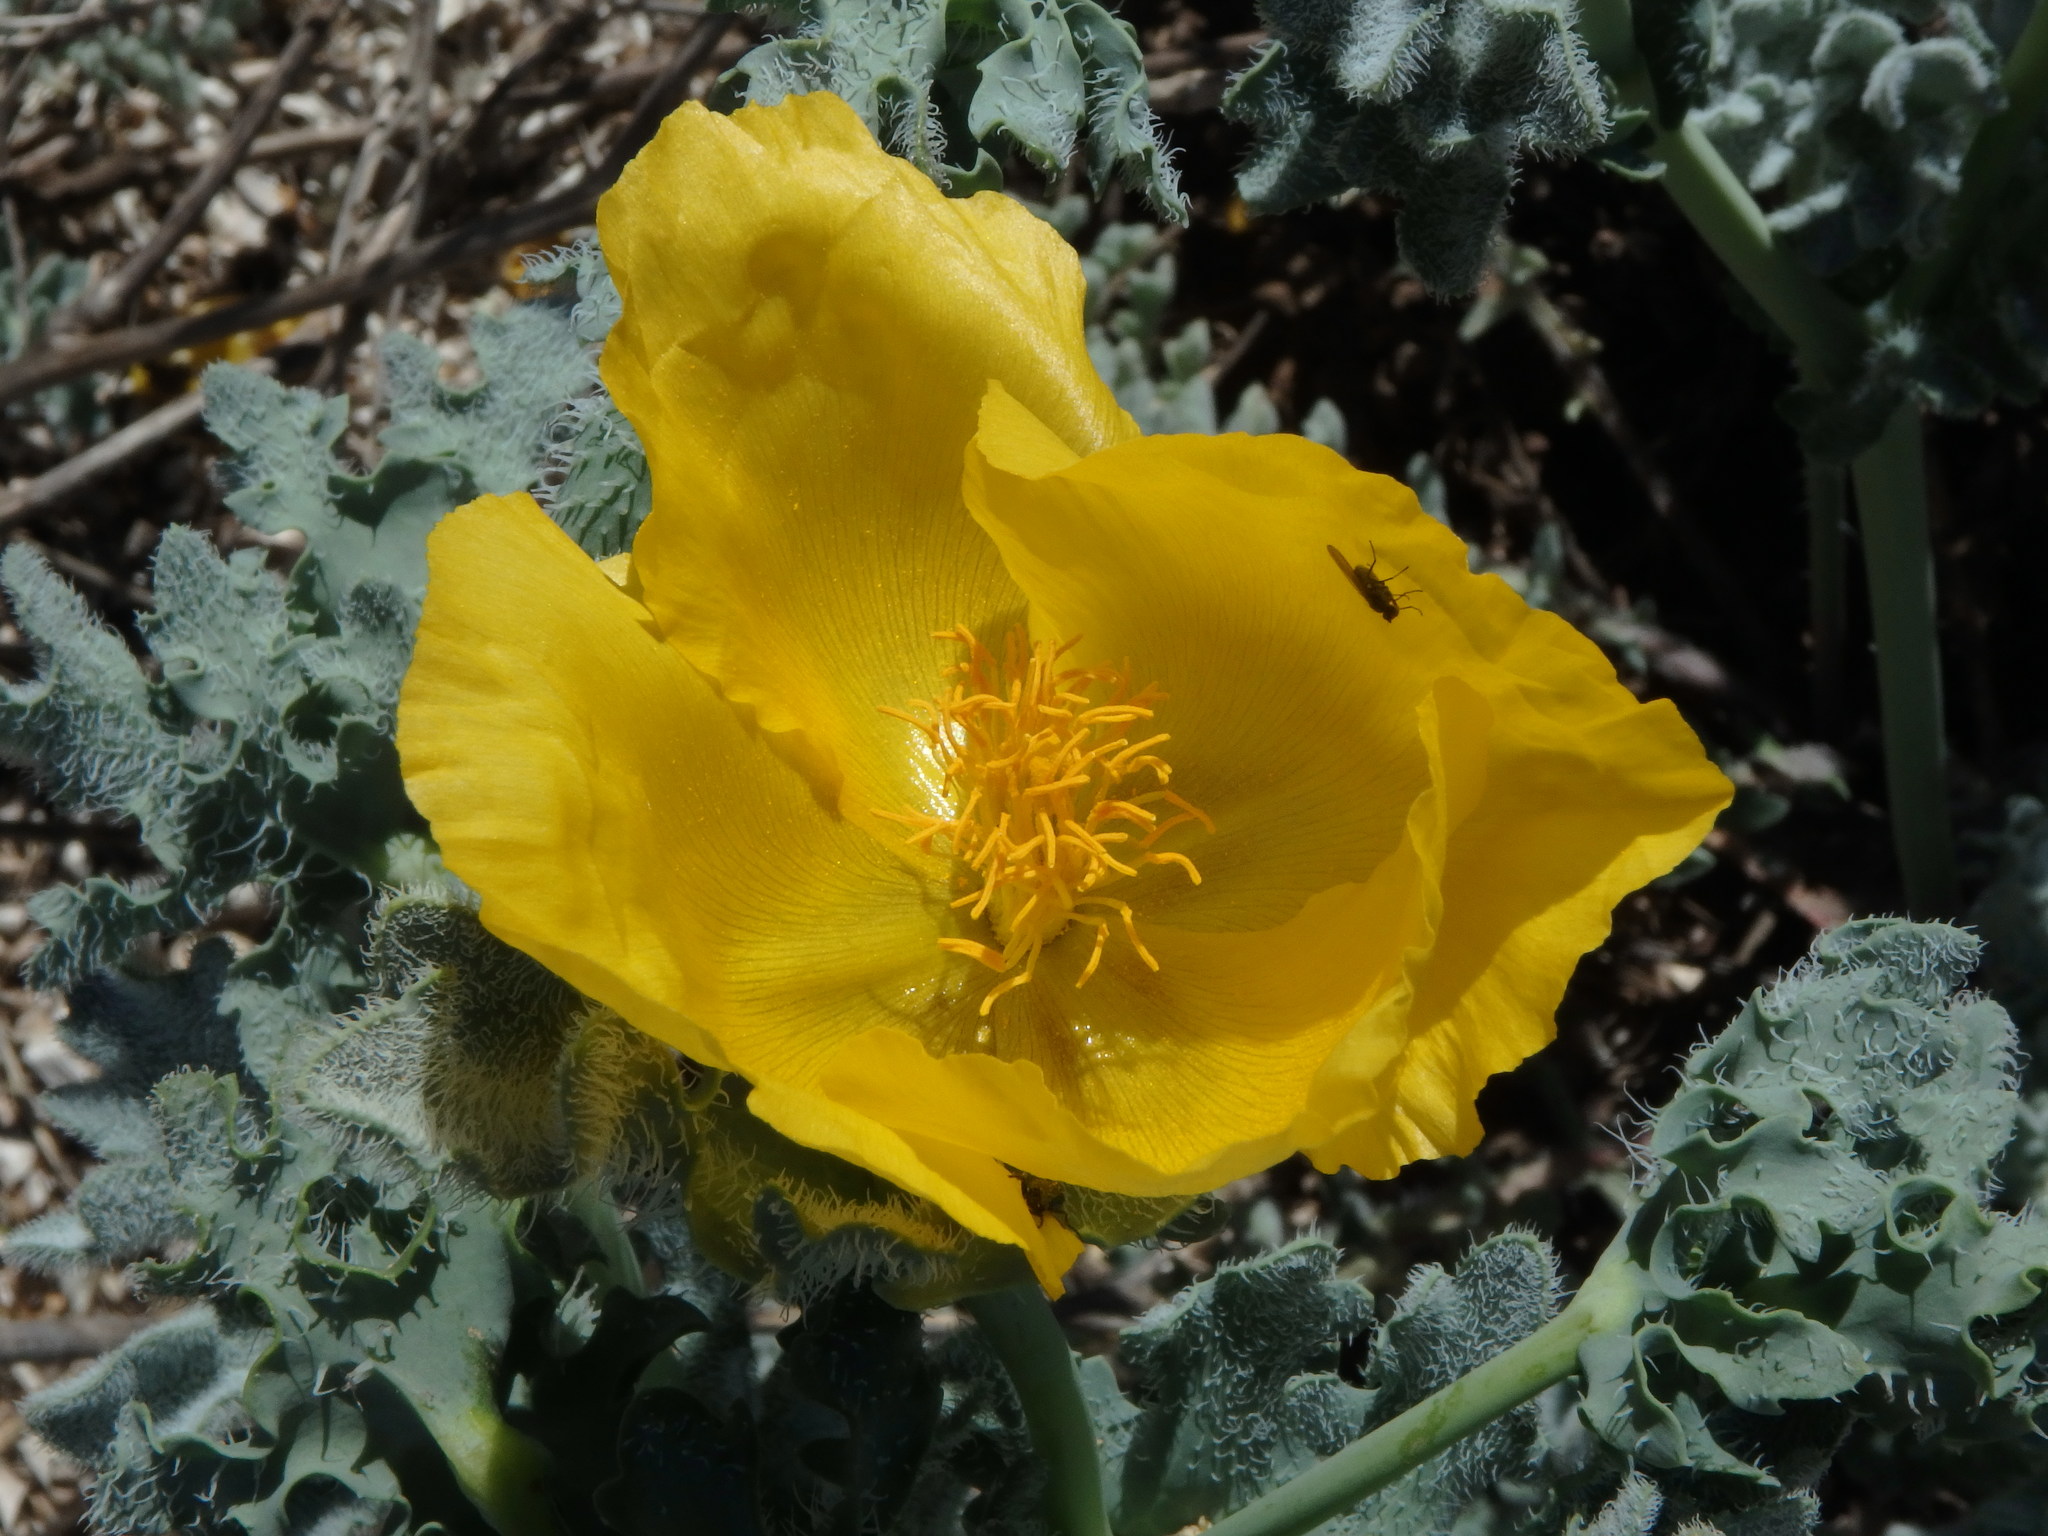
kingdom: Plantae
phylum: Tracheophyta
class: Magnoliopsida
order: Ranunculales
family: Papaveraceae
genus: Glaucium
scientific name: Glaucium flavum
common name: Yellow horned-poppy
